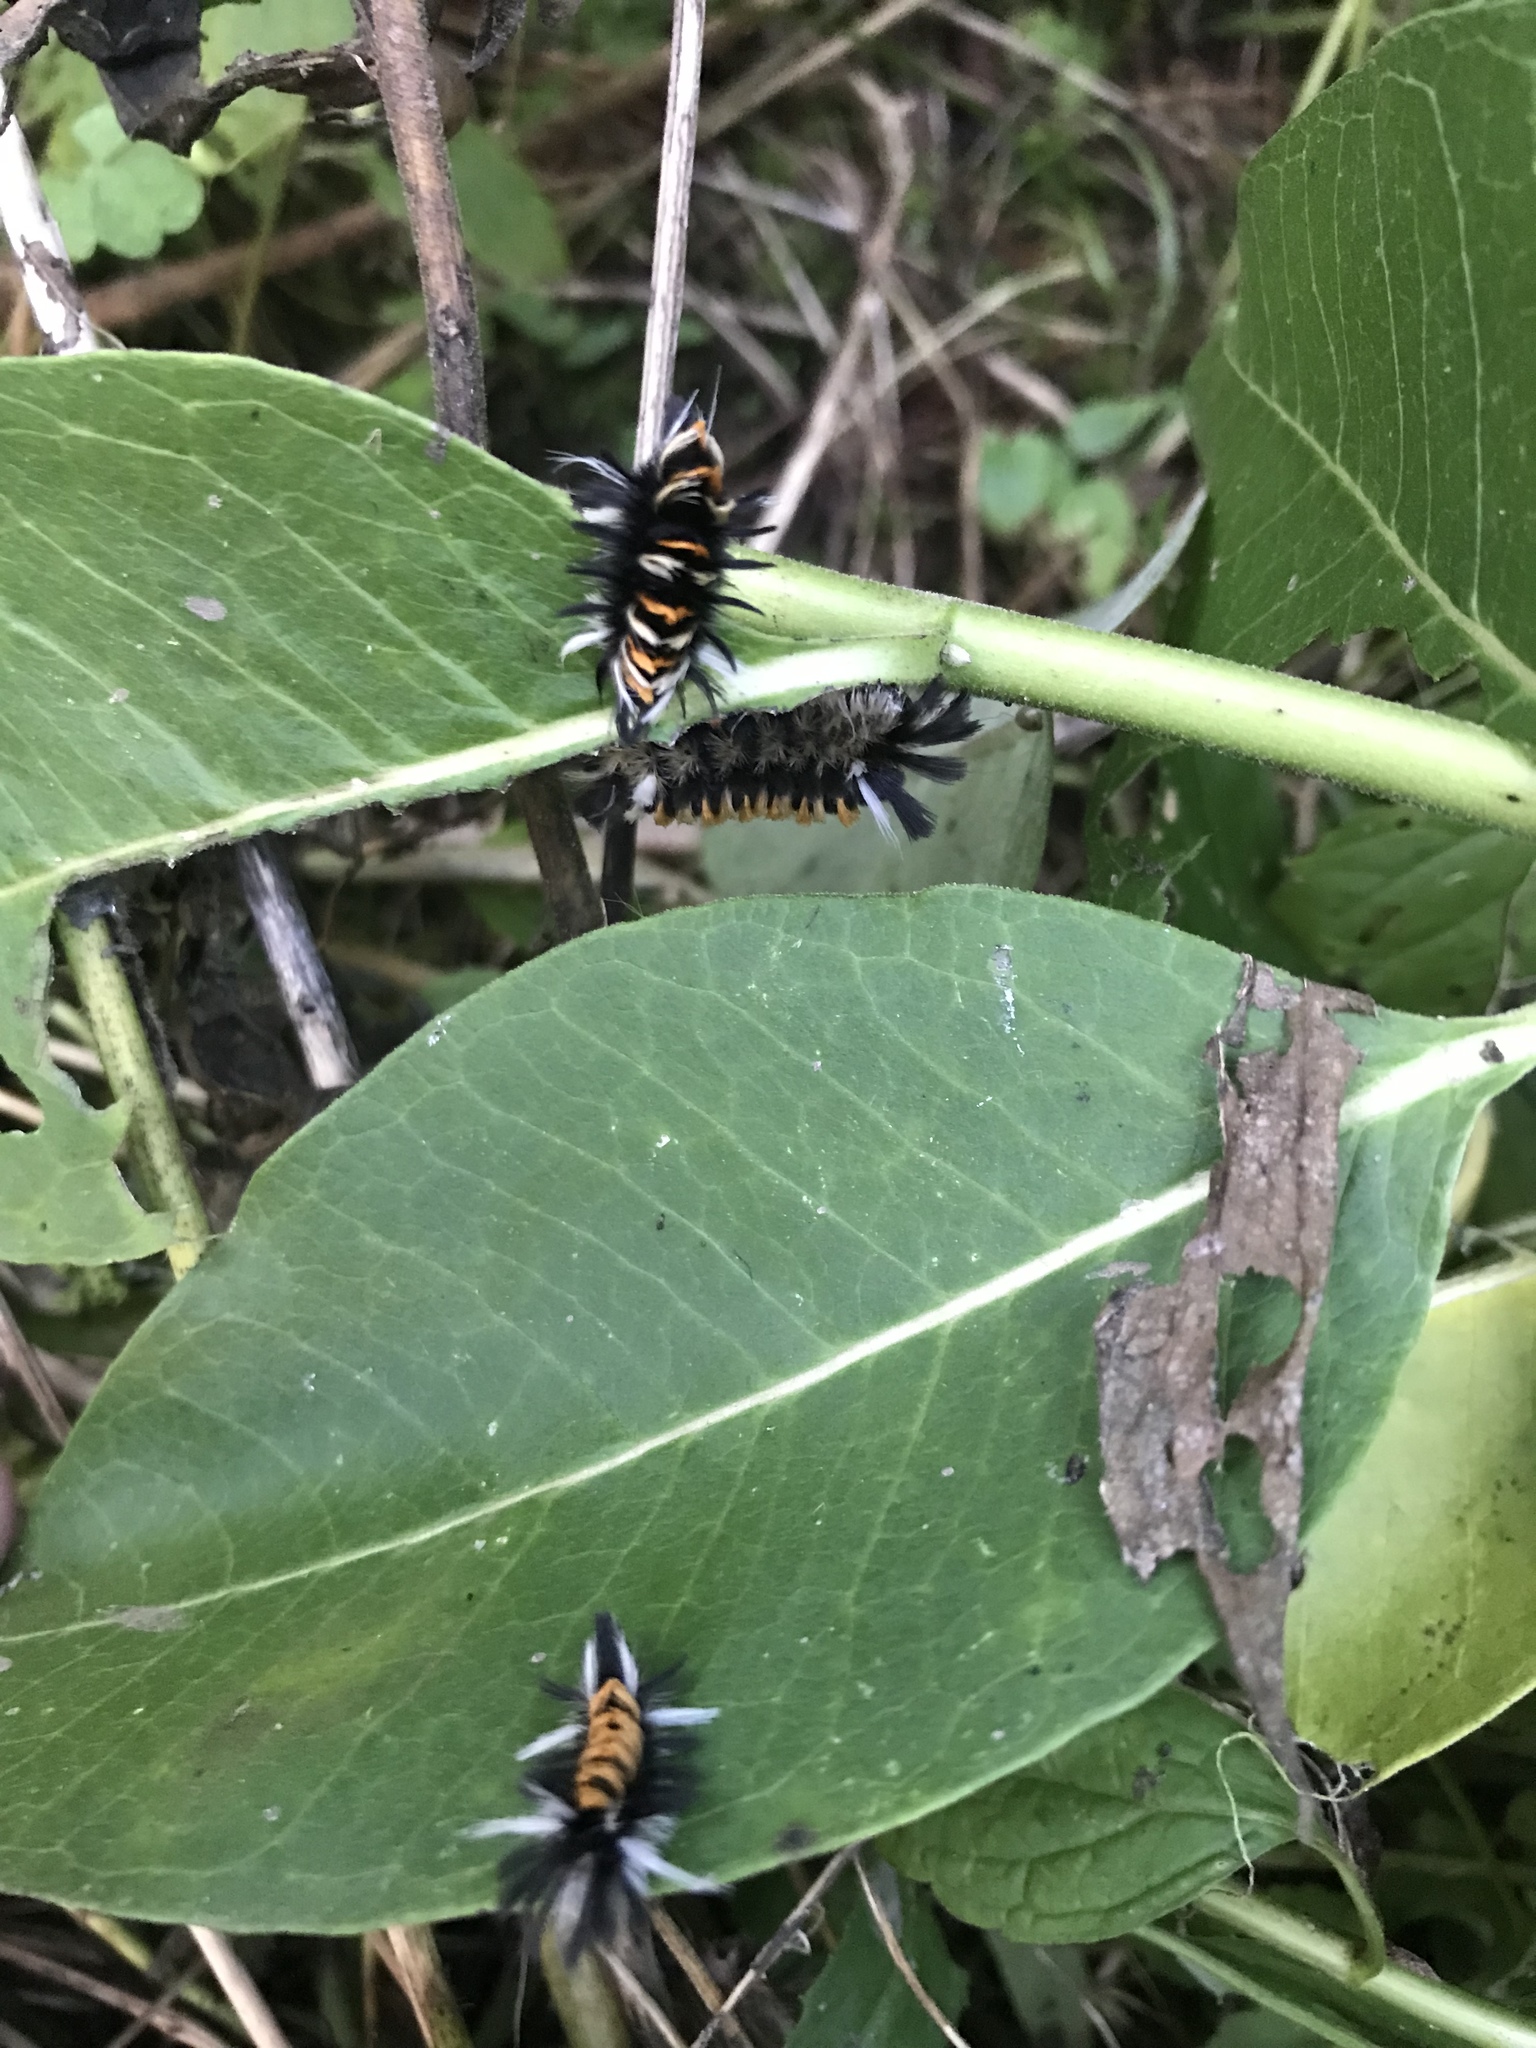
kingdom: Animalia
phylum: Arthropoda
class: Insecta
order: Lepidoptera
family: Erebidae
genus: Euchaetes
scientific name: Euchaetes egle
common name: Milkweed tussock moth
